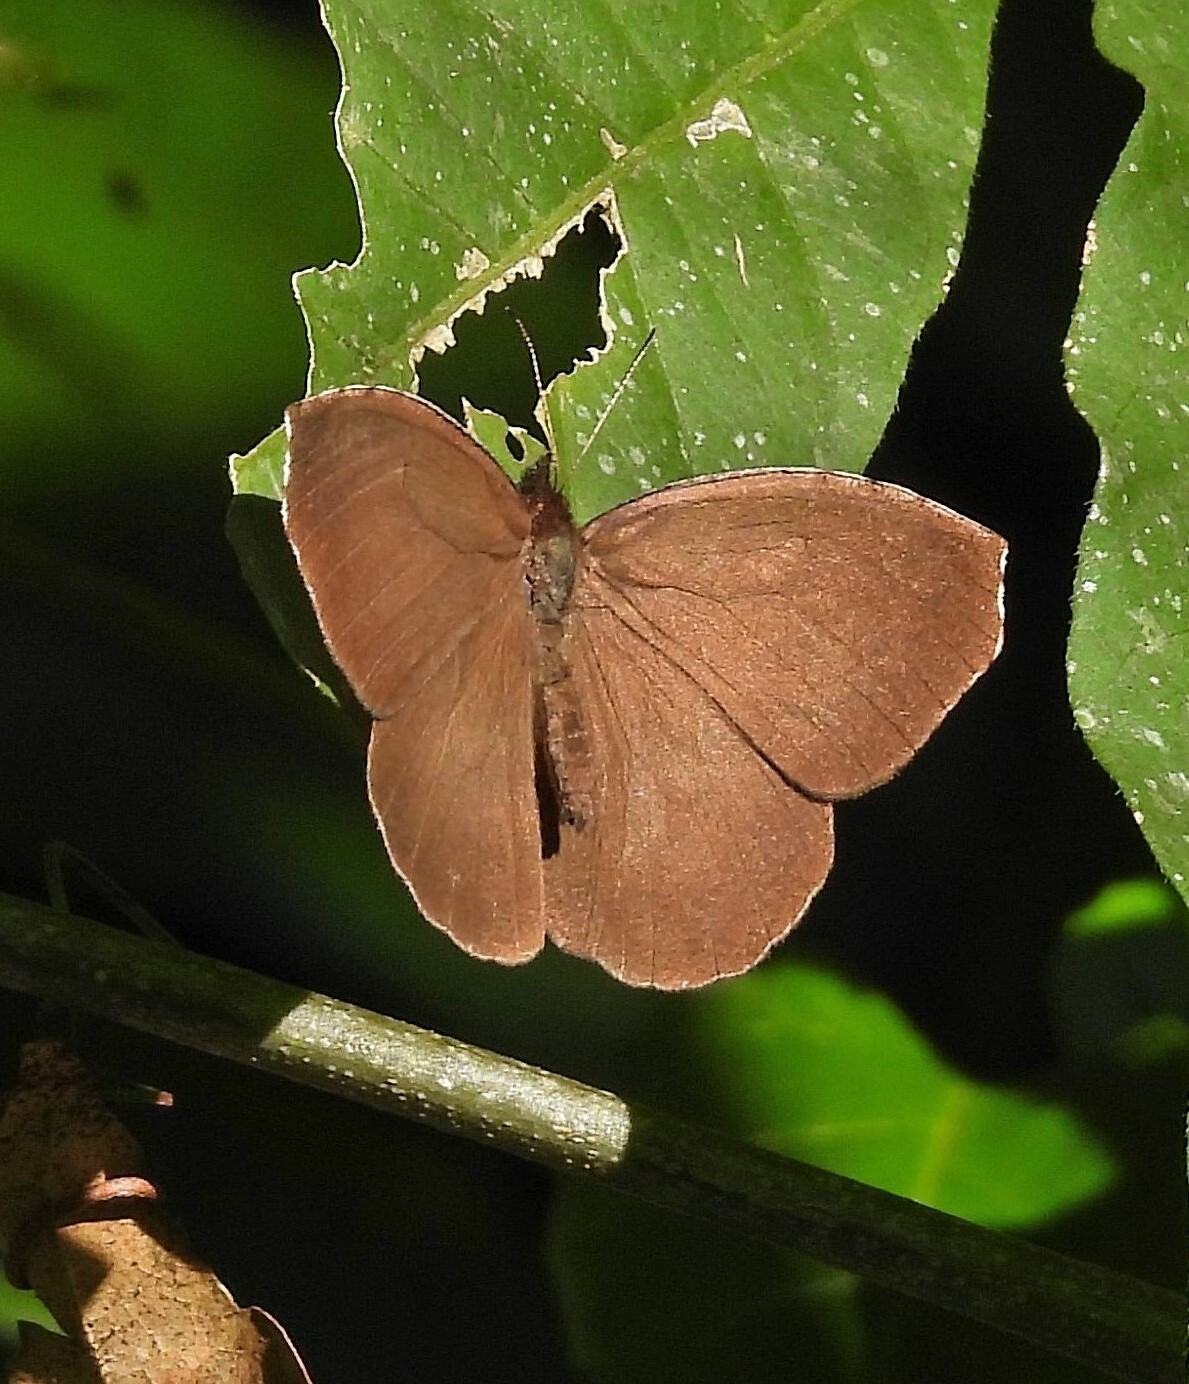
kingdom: Animalia
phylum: Arthropoda
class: Insecta
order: Lepidoptera
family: Nymphalidae
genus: Godartiana
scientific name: Godartiana muscosa
